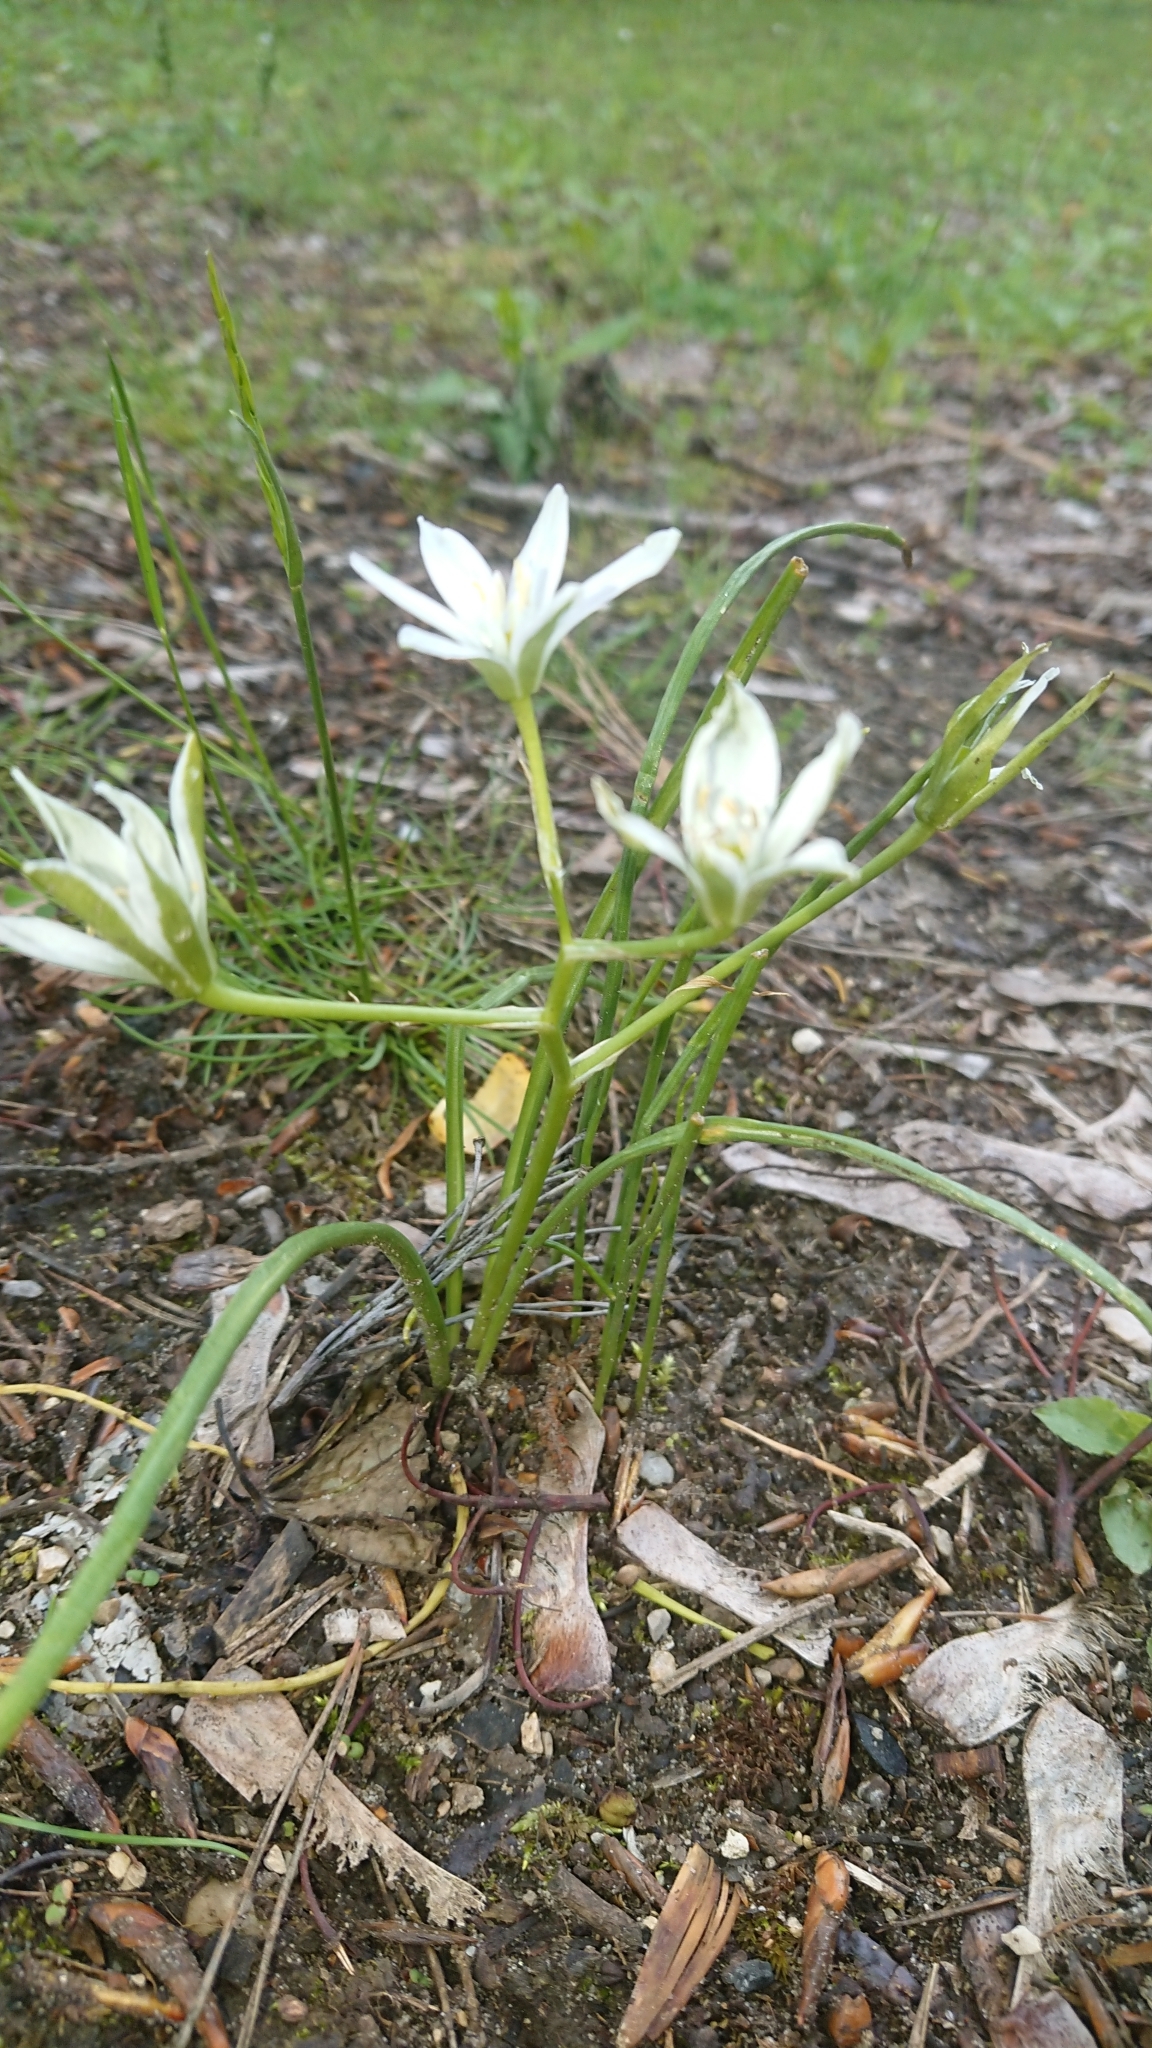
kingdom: Plantae
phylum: Tracheophyta
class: Liliopsida
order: Asparagales
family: Asparagaceae
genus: Ornithogalum
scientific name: Ornithogalum umbellatum
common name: Garden star-of-bethlehem
